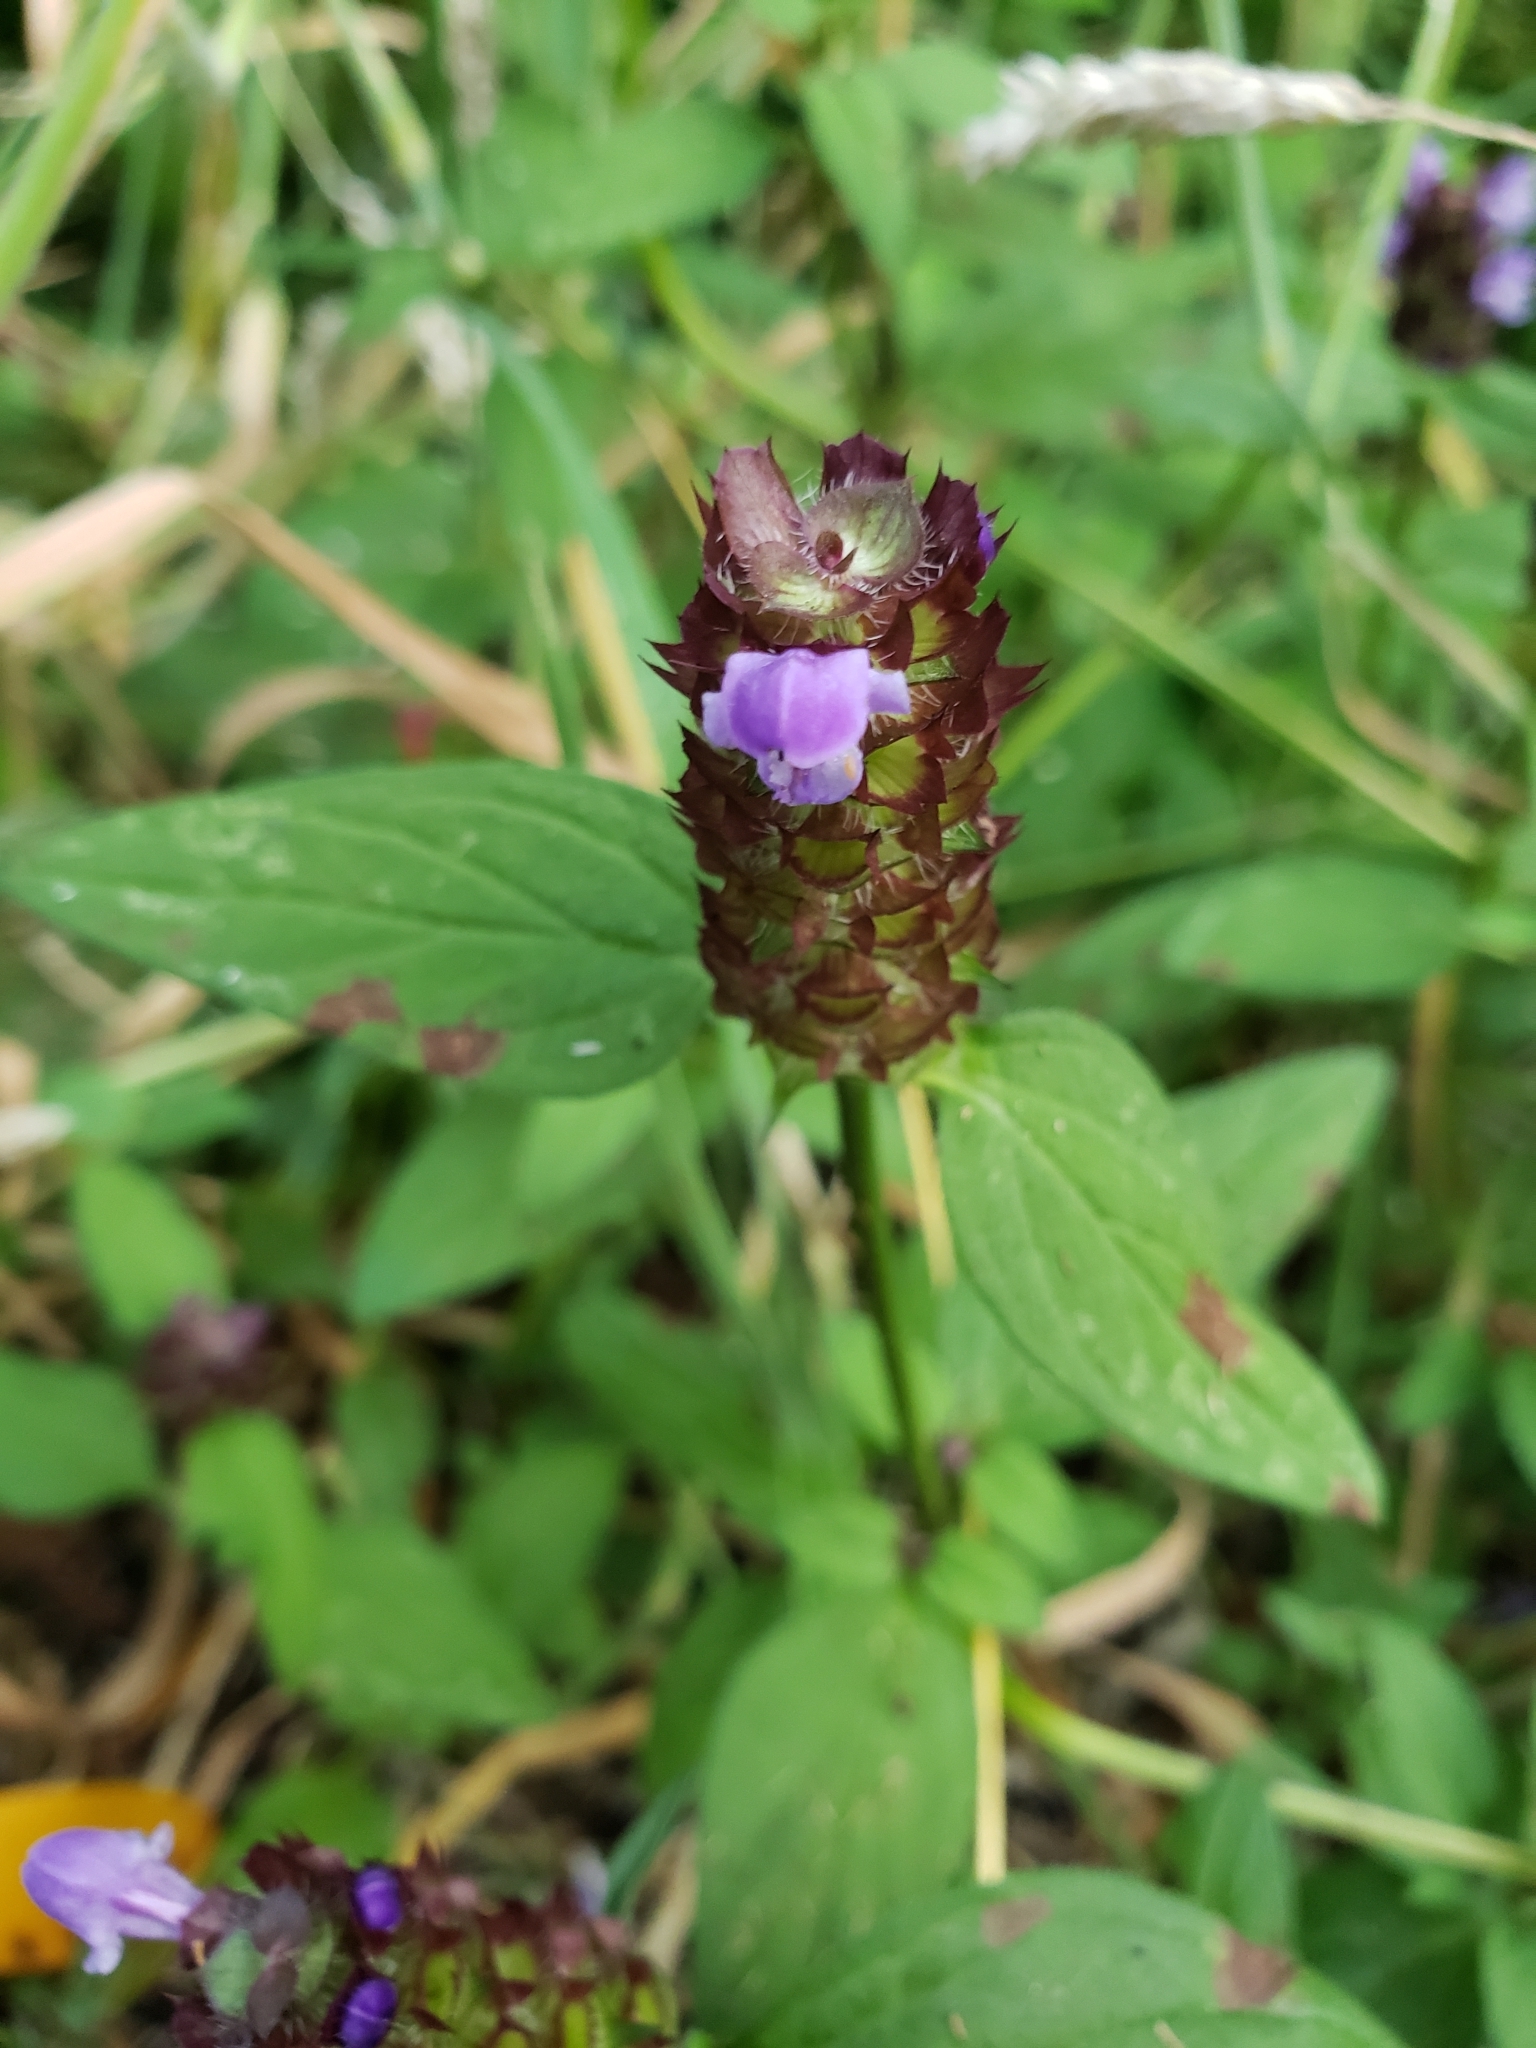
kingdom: Plantae
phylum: Tracheophyta
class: Magnoliopsida
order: Lamiales
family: Lamiaceae
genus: Prunella
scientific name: Prunella vulgaris
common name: Heal-all
